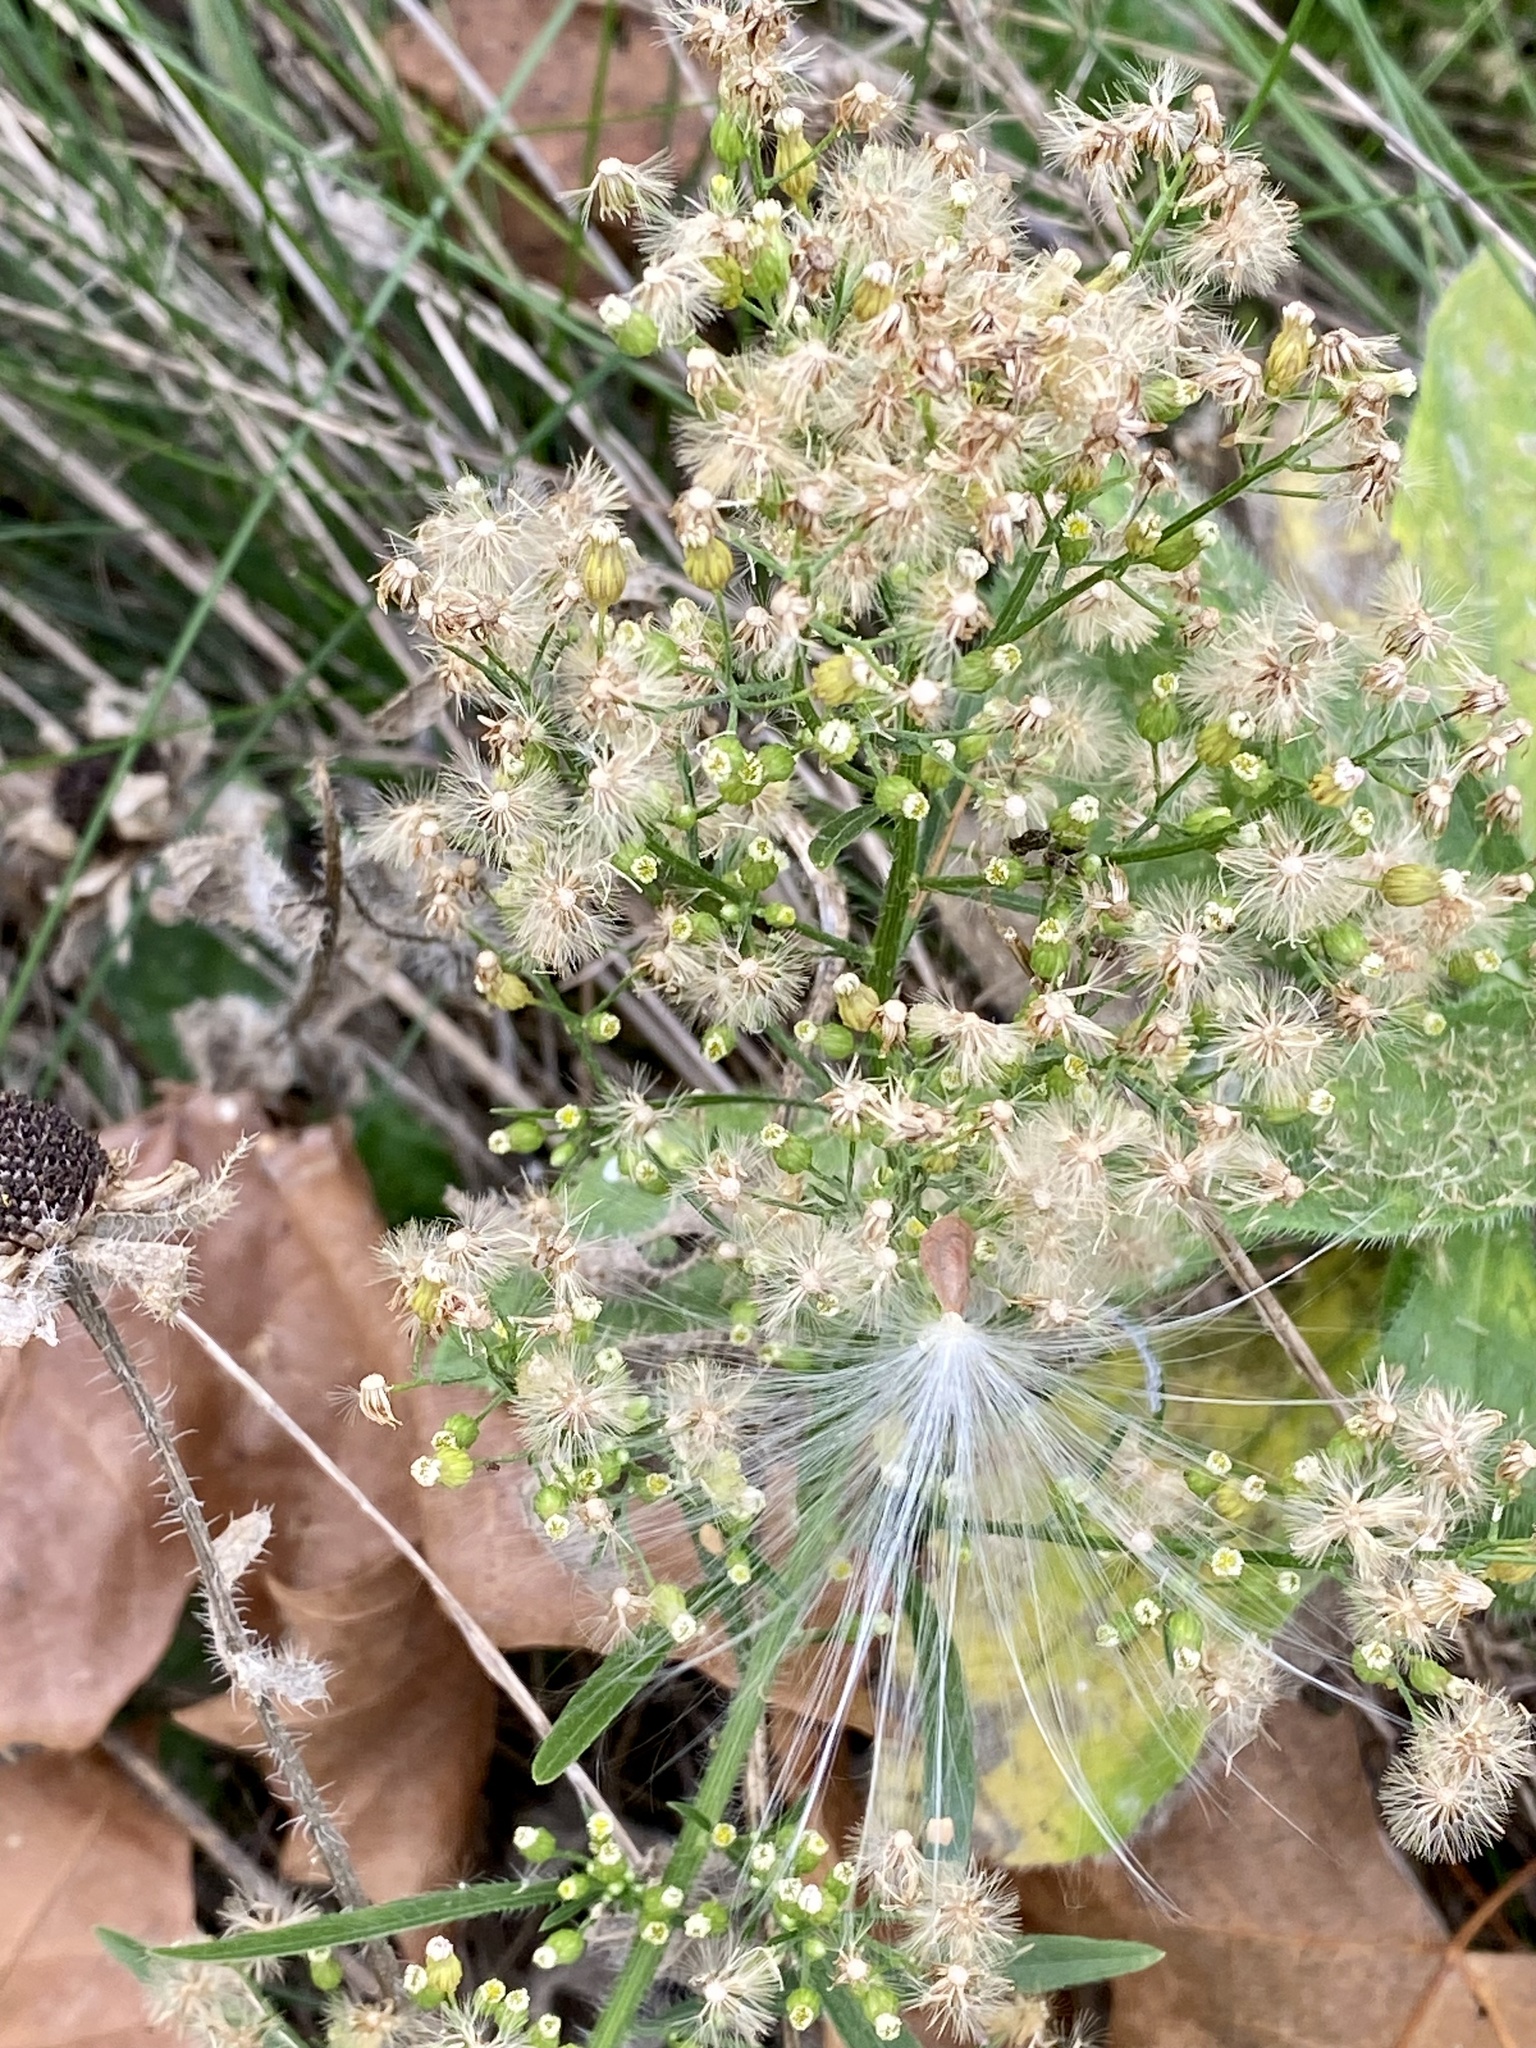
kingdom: Plantae
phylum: Tracheophyta
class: Magnoliopsida
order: Asterales
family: Asteraceae
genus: Erigeron
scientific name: Erigeron canadensis
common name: Canadian fleabane
